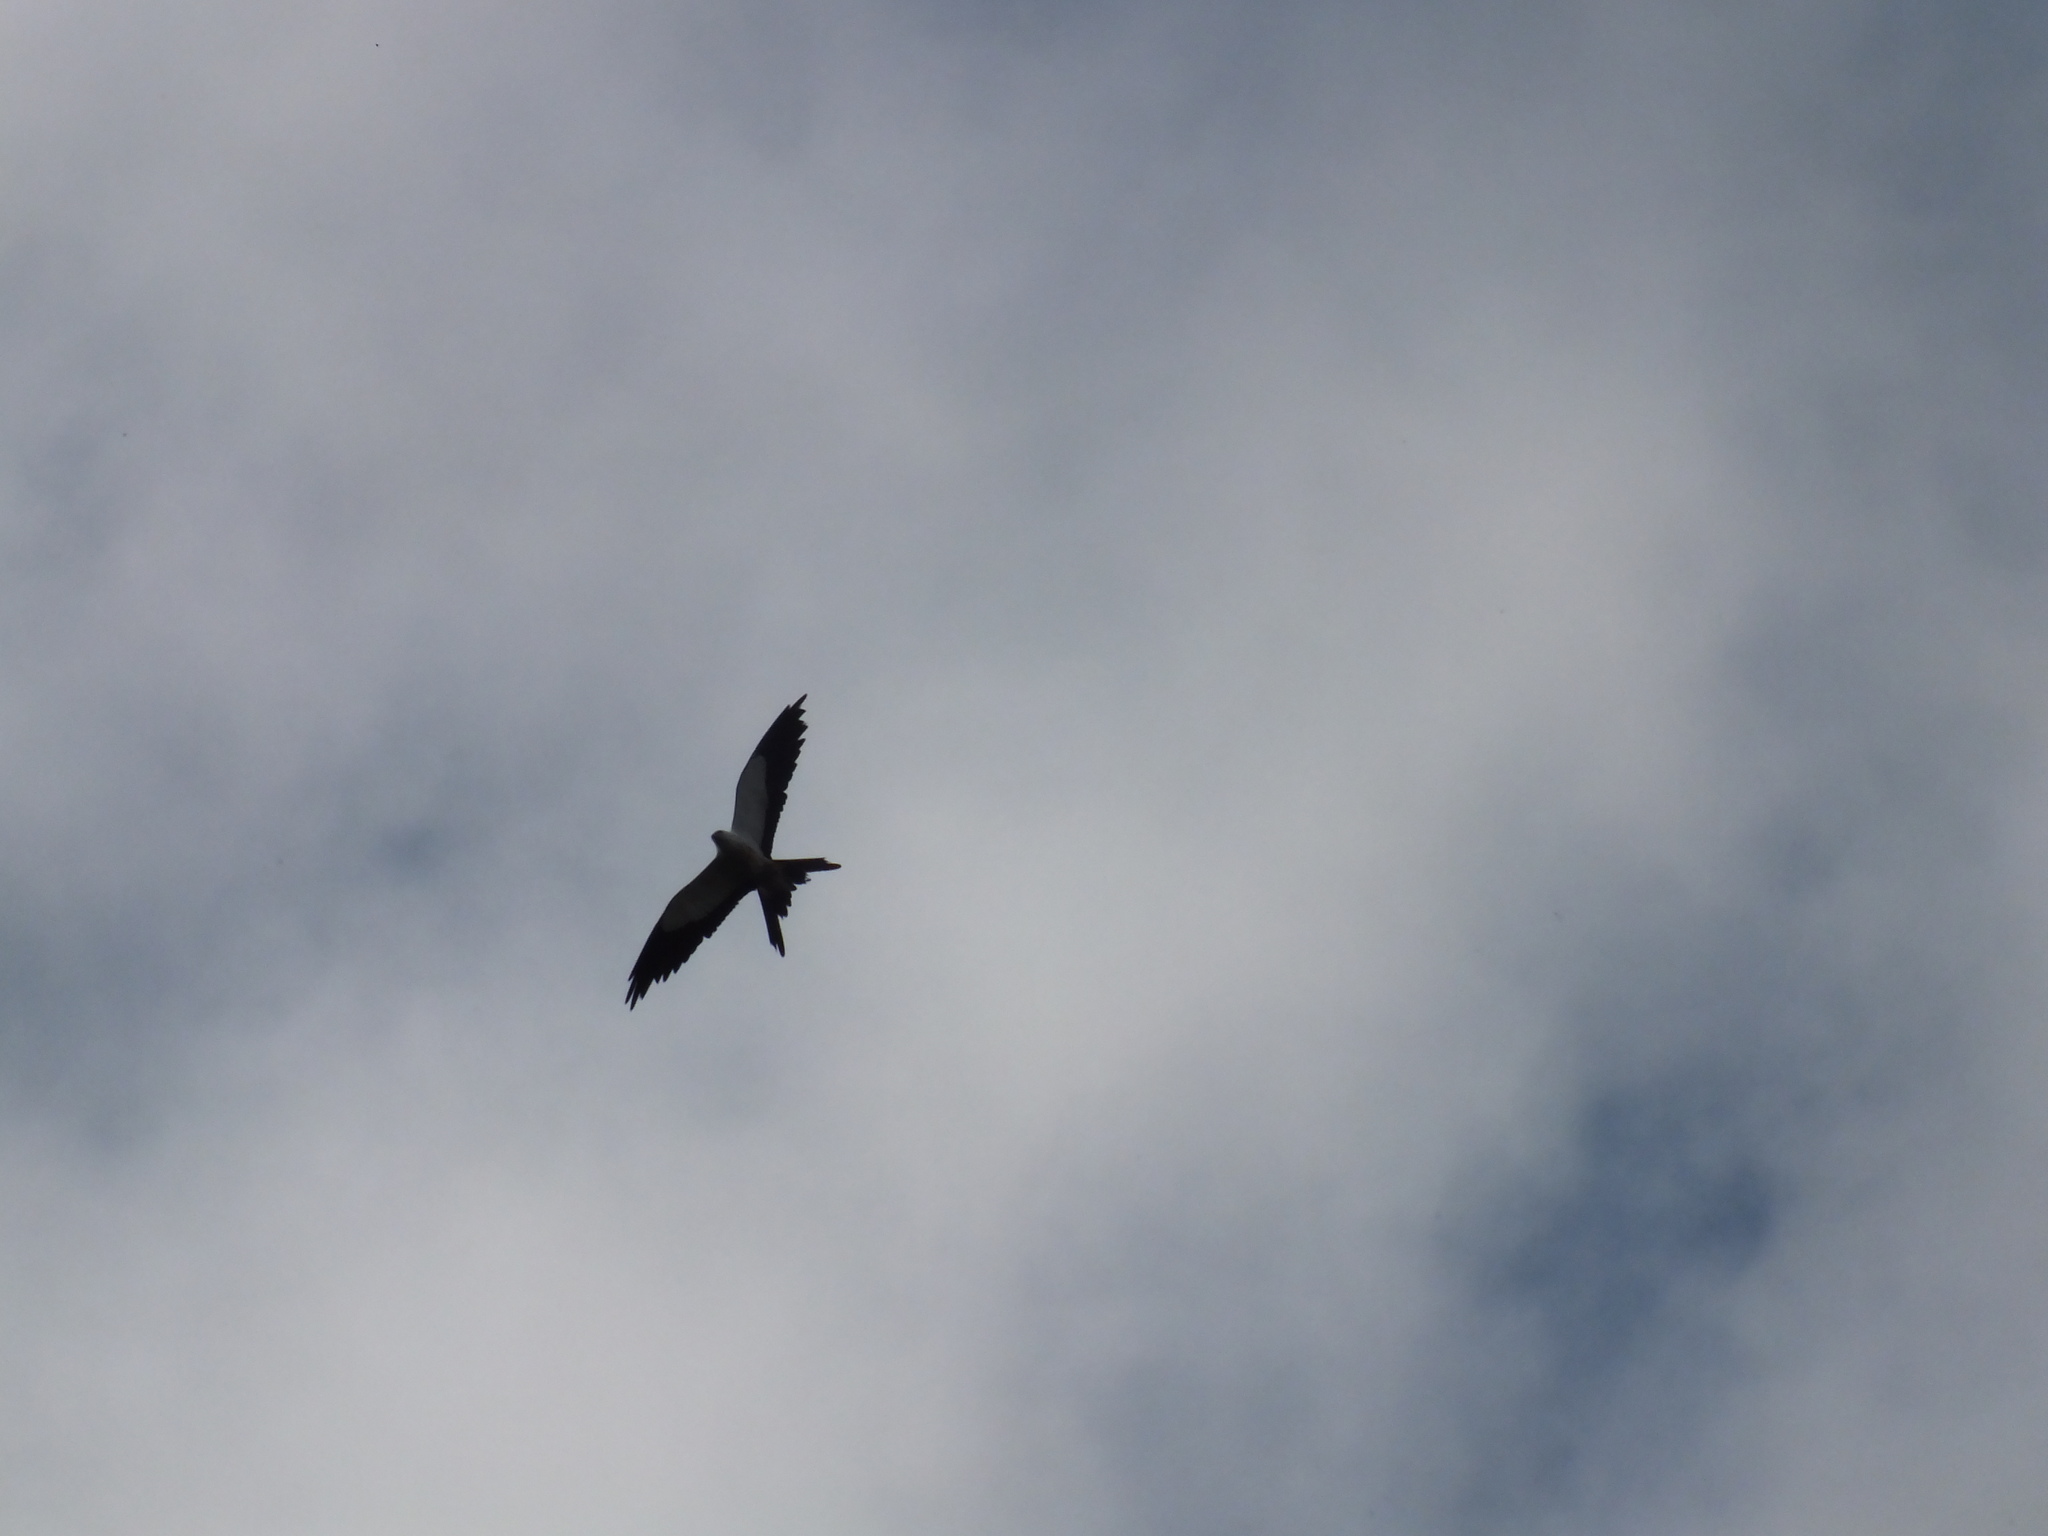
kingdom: Animalia
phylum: Chordata
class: Aves
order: Accipitriformes
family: Accipitridae
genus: Elanoides
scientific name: Elanoides forficatus
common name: Swallow-tailed kite
